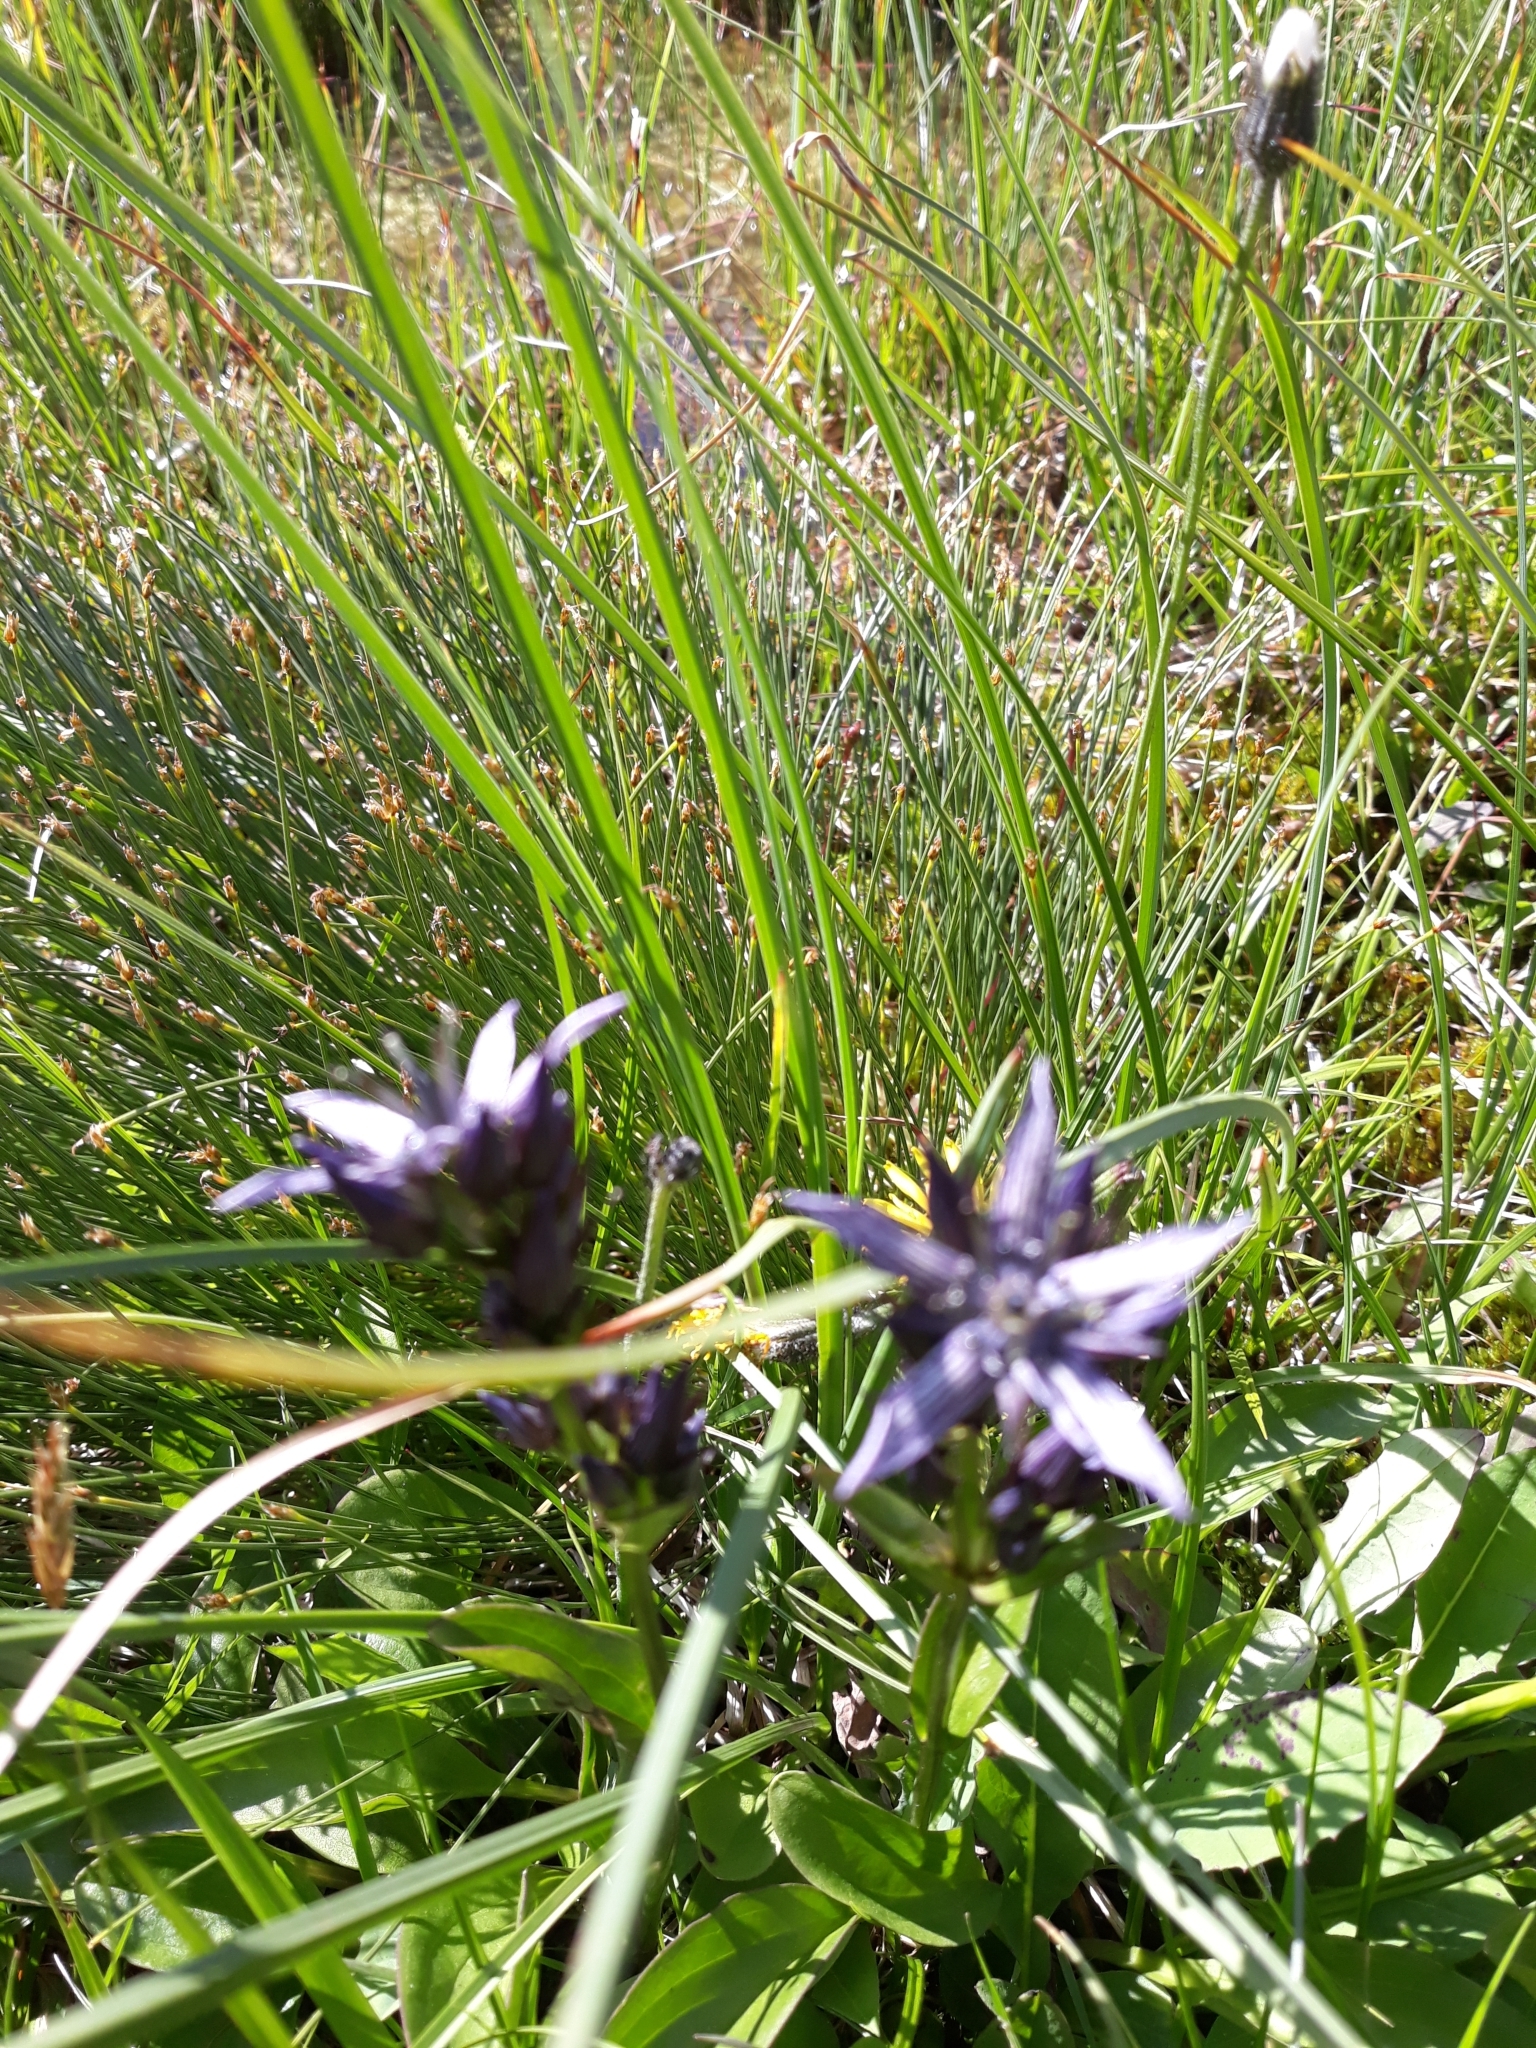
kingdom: Plantae
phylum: Tracheophyta
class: Magnoliopsida
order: Gentianales
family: Gentianaceae
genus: Swertia
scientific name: Swertia perennis
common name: Alpine bog swertia
